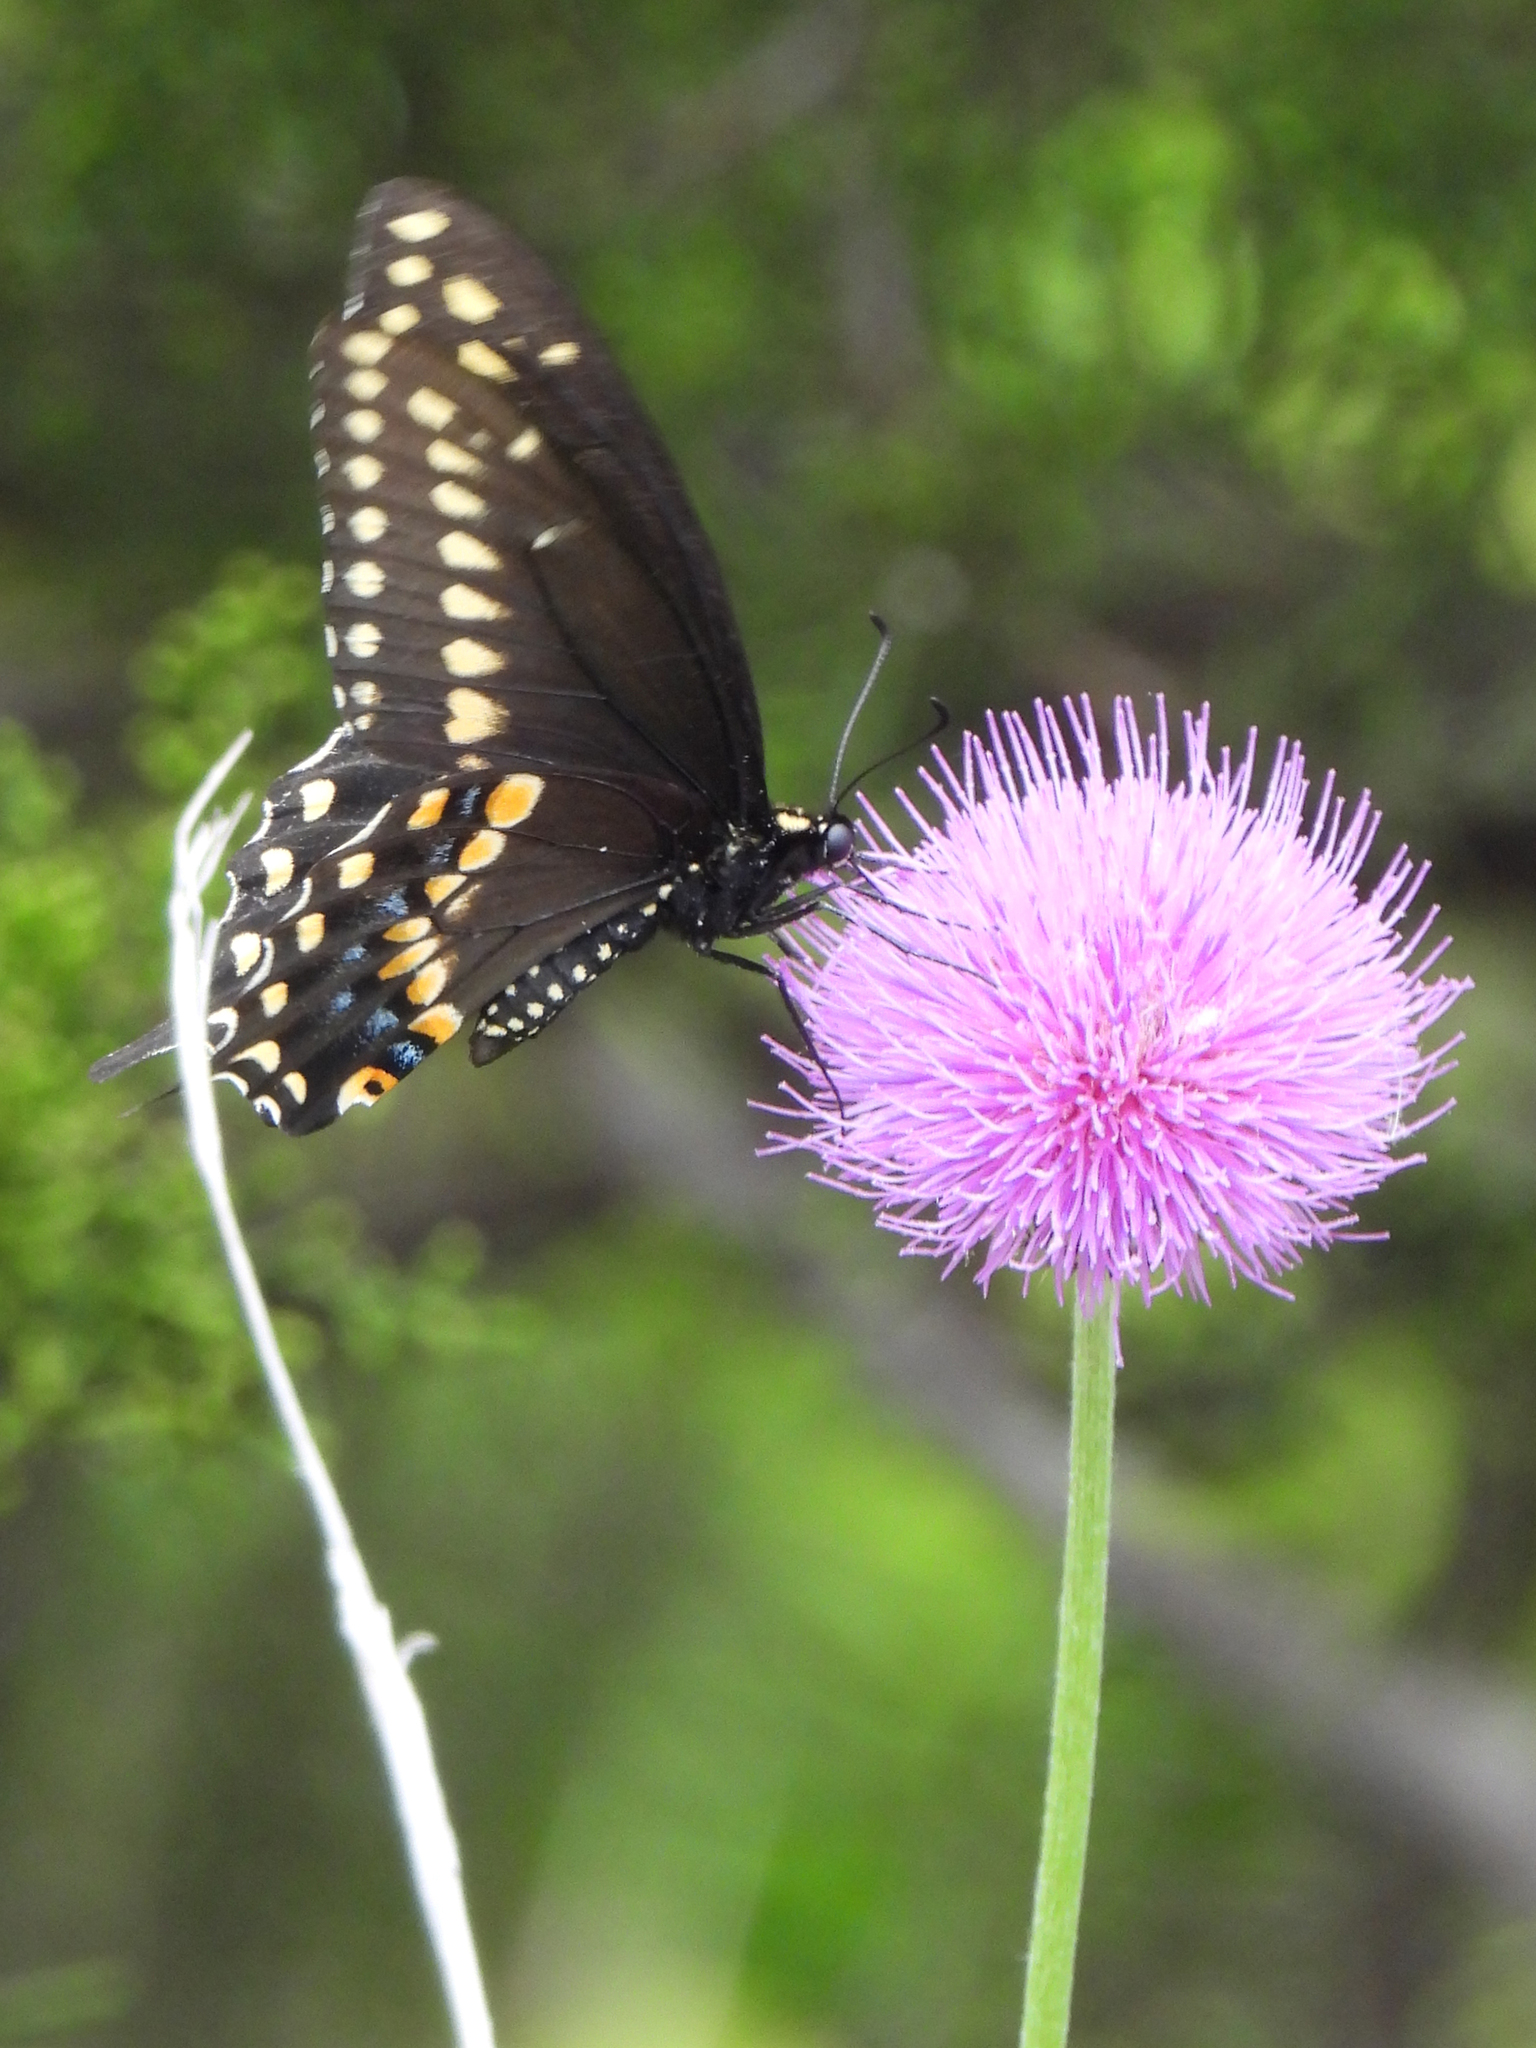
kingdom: Animalia
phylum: Arthropoda
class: Insecta
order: Lepidoptera
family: Papilionidae
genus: Papilio
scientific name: Papilio polyxenes
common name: Black swallowtail
